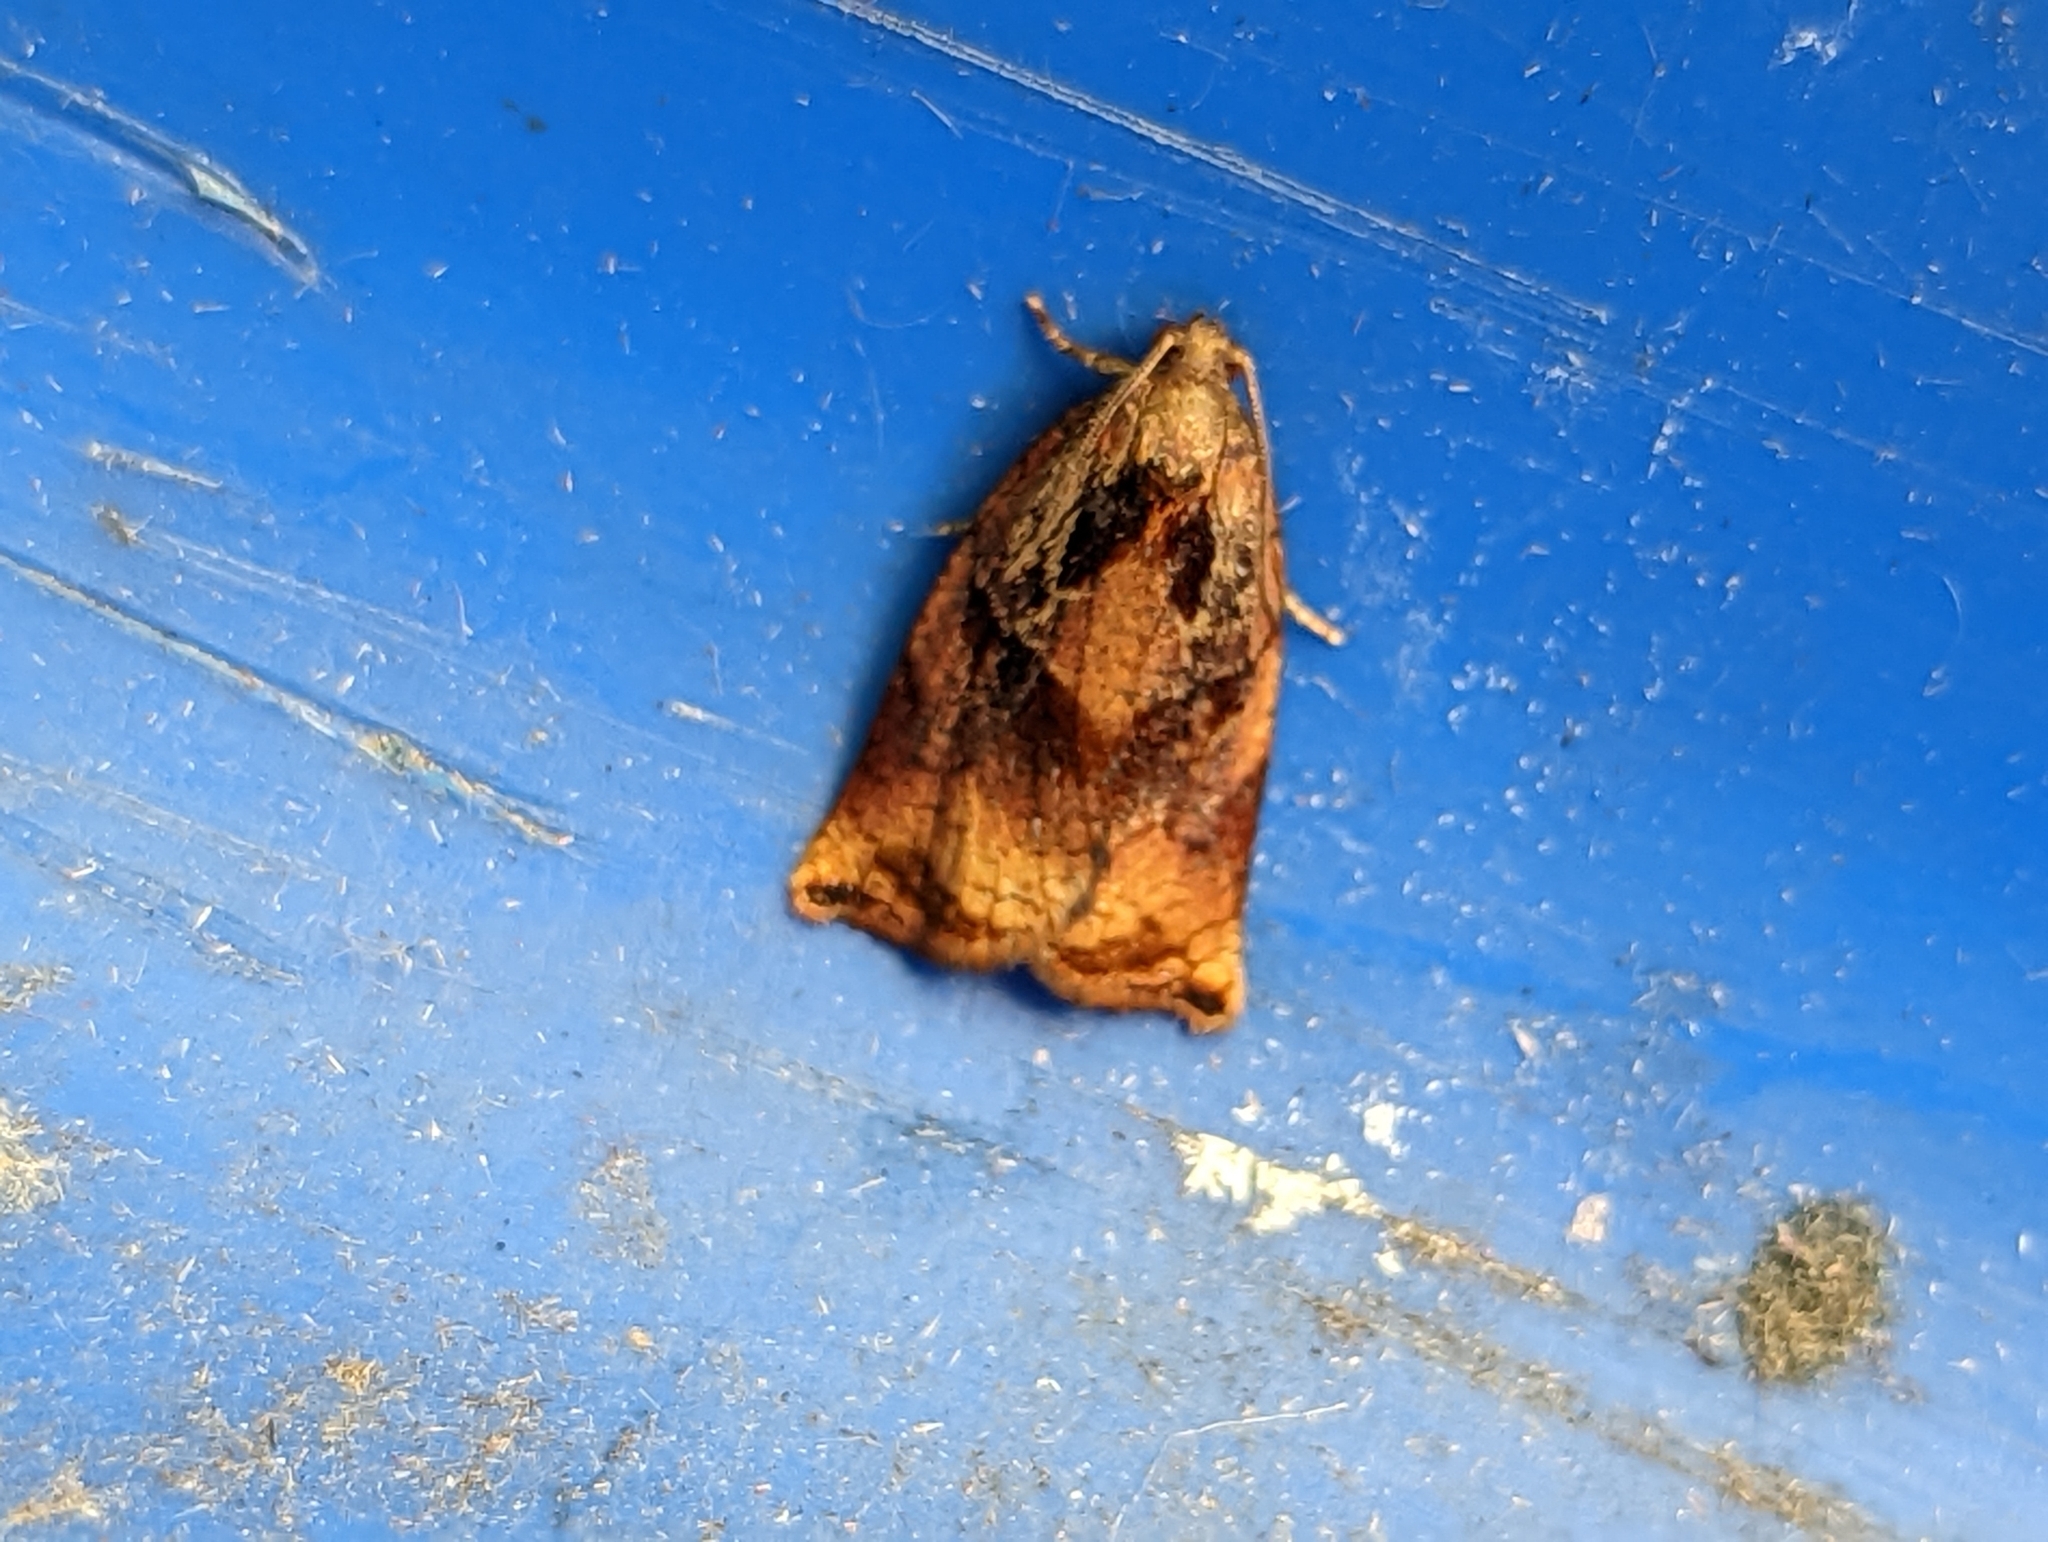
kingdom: Animalia
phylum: Arthropoda
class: Insecta
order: Lepidoptera
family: Tortricidae
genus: Archips
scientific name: Archips podana
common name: Large fruit-tree tortrix
